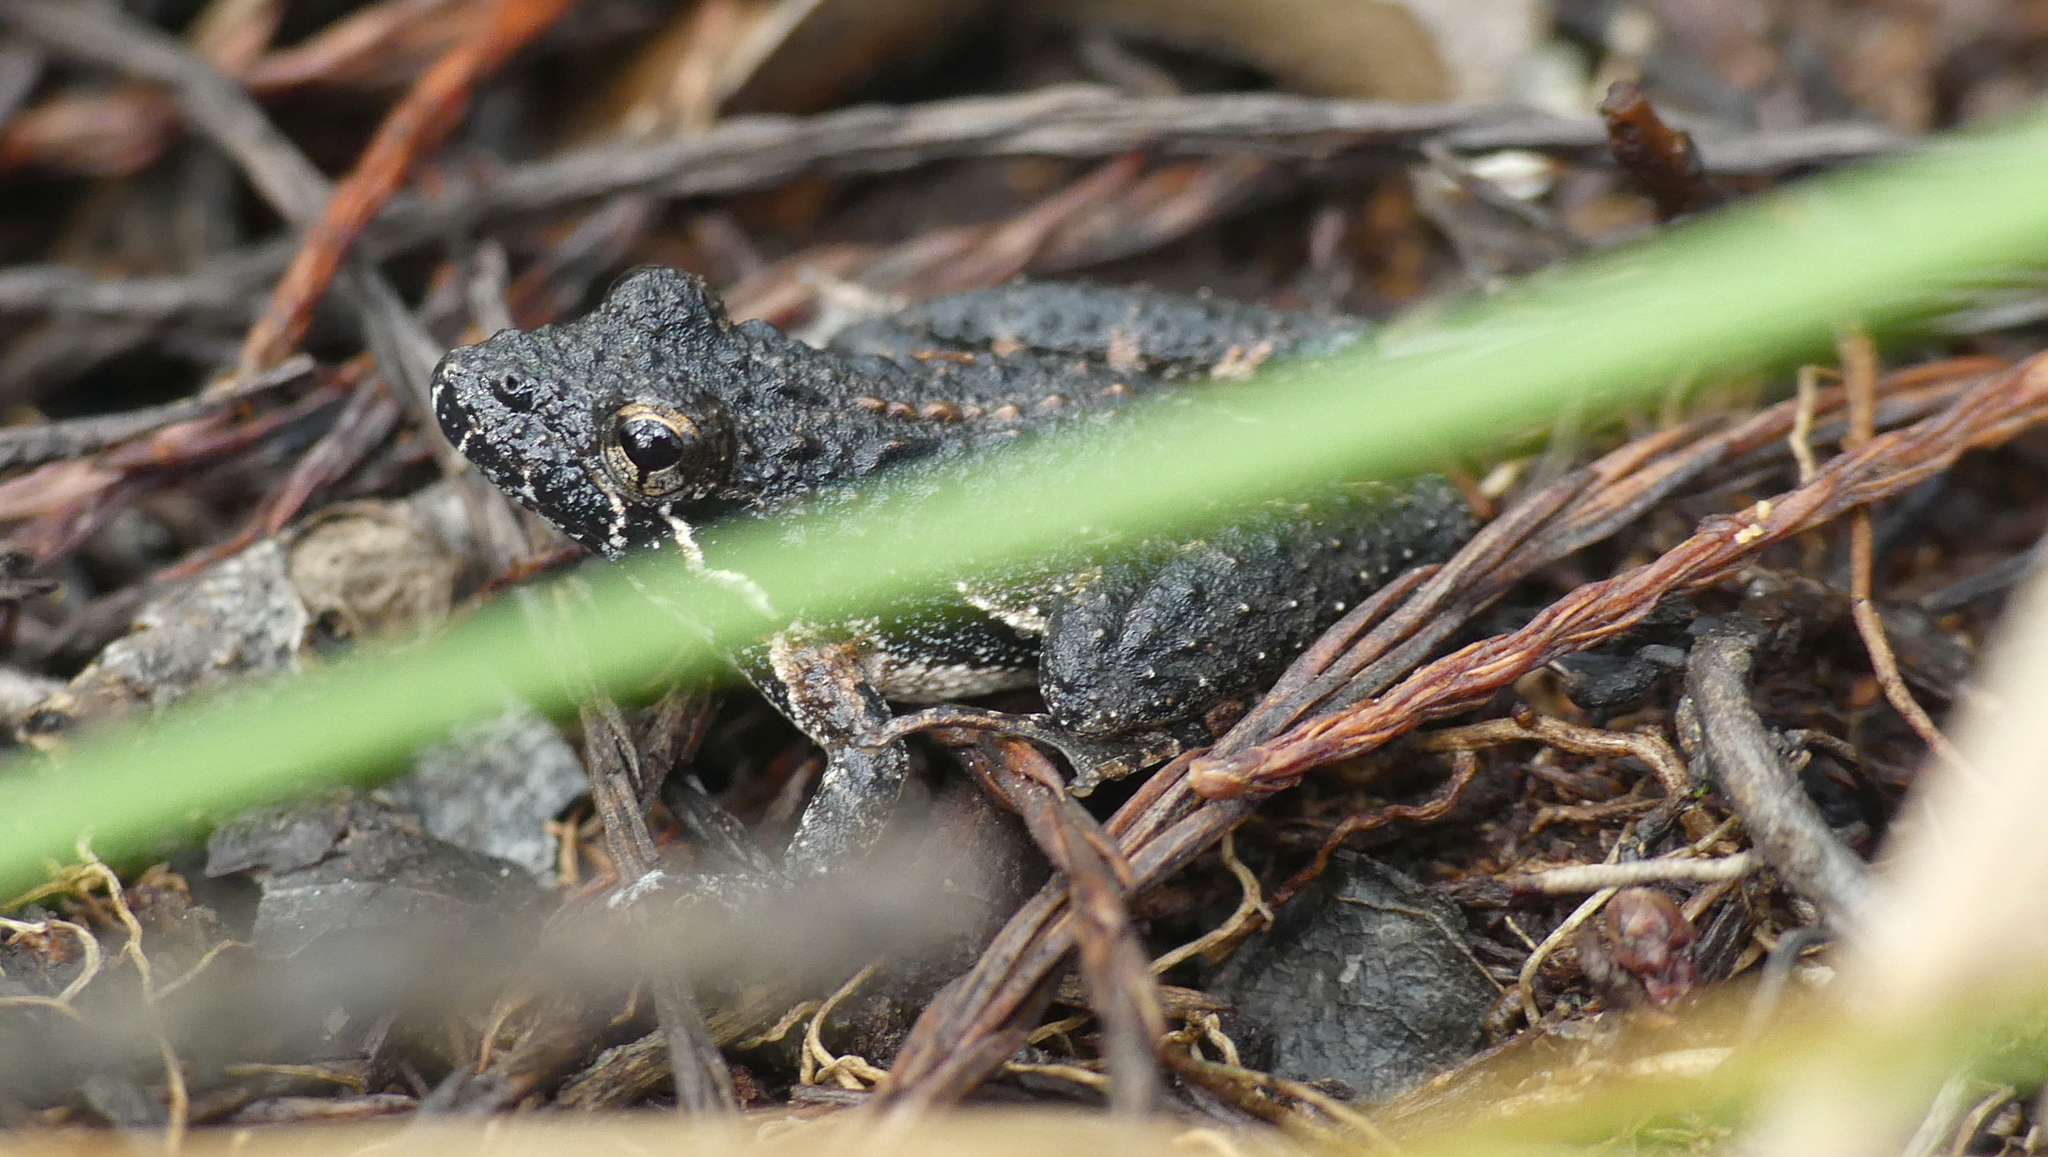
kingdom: Animalia
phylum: Chordata
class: Amphibia
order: Anura
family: Hylidae
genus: Acris
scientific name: Acris gryllus
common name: Southern cricket frog
